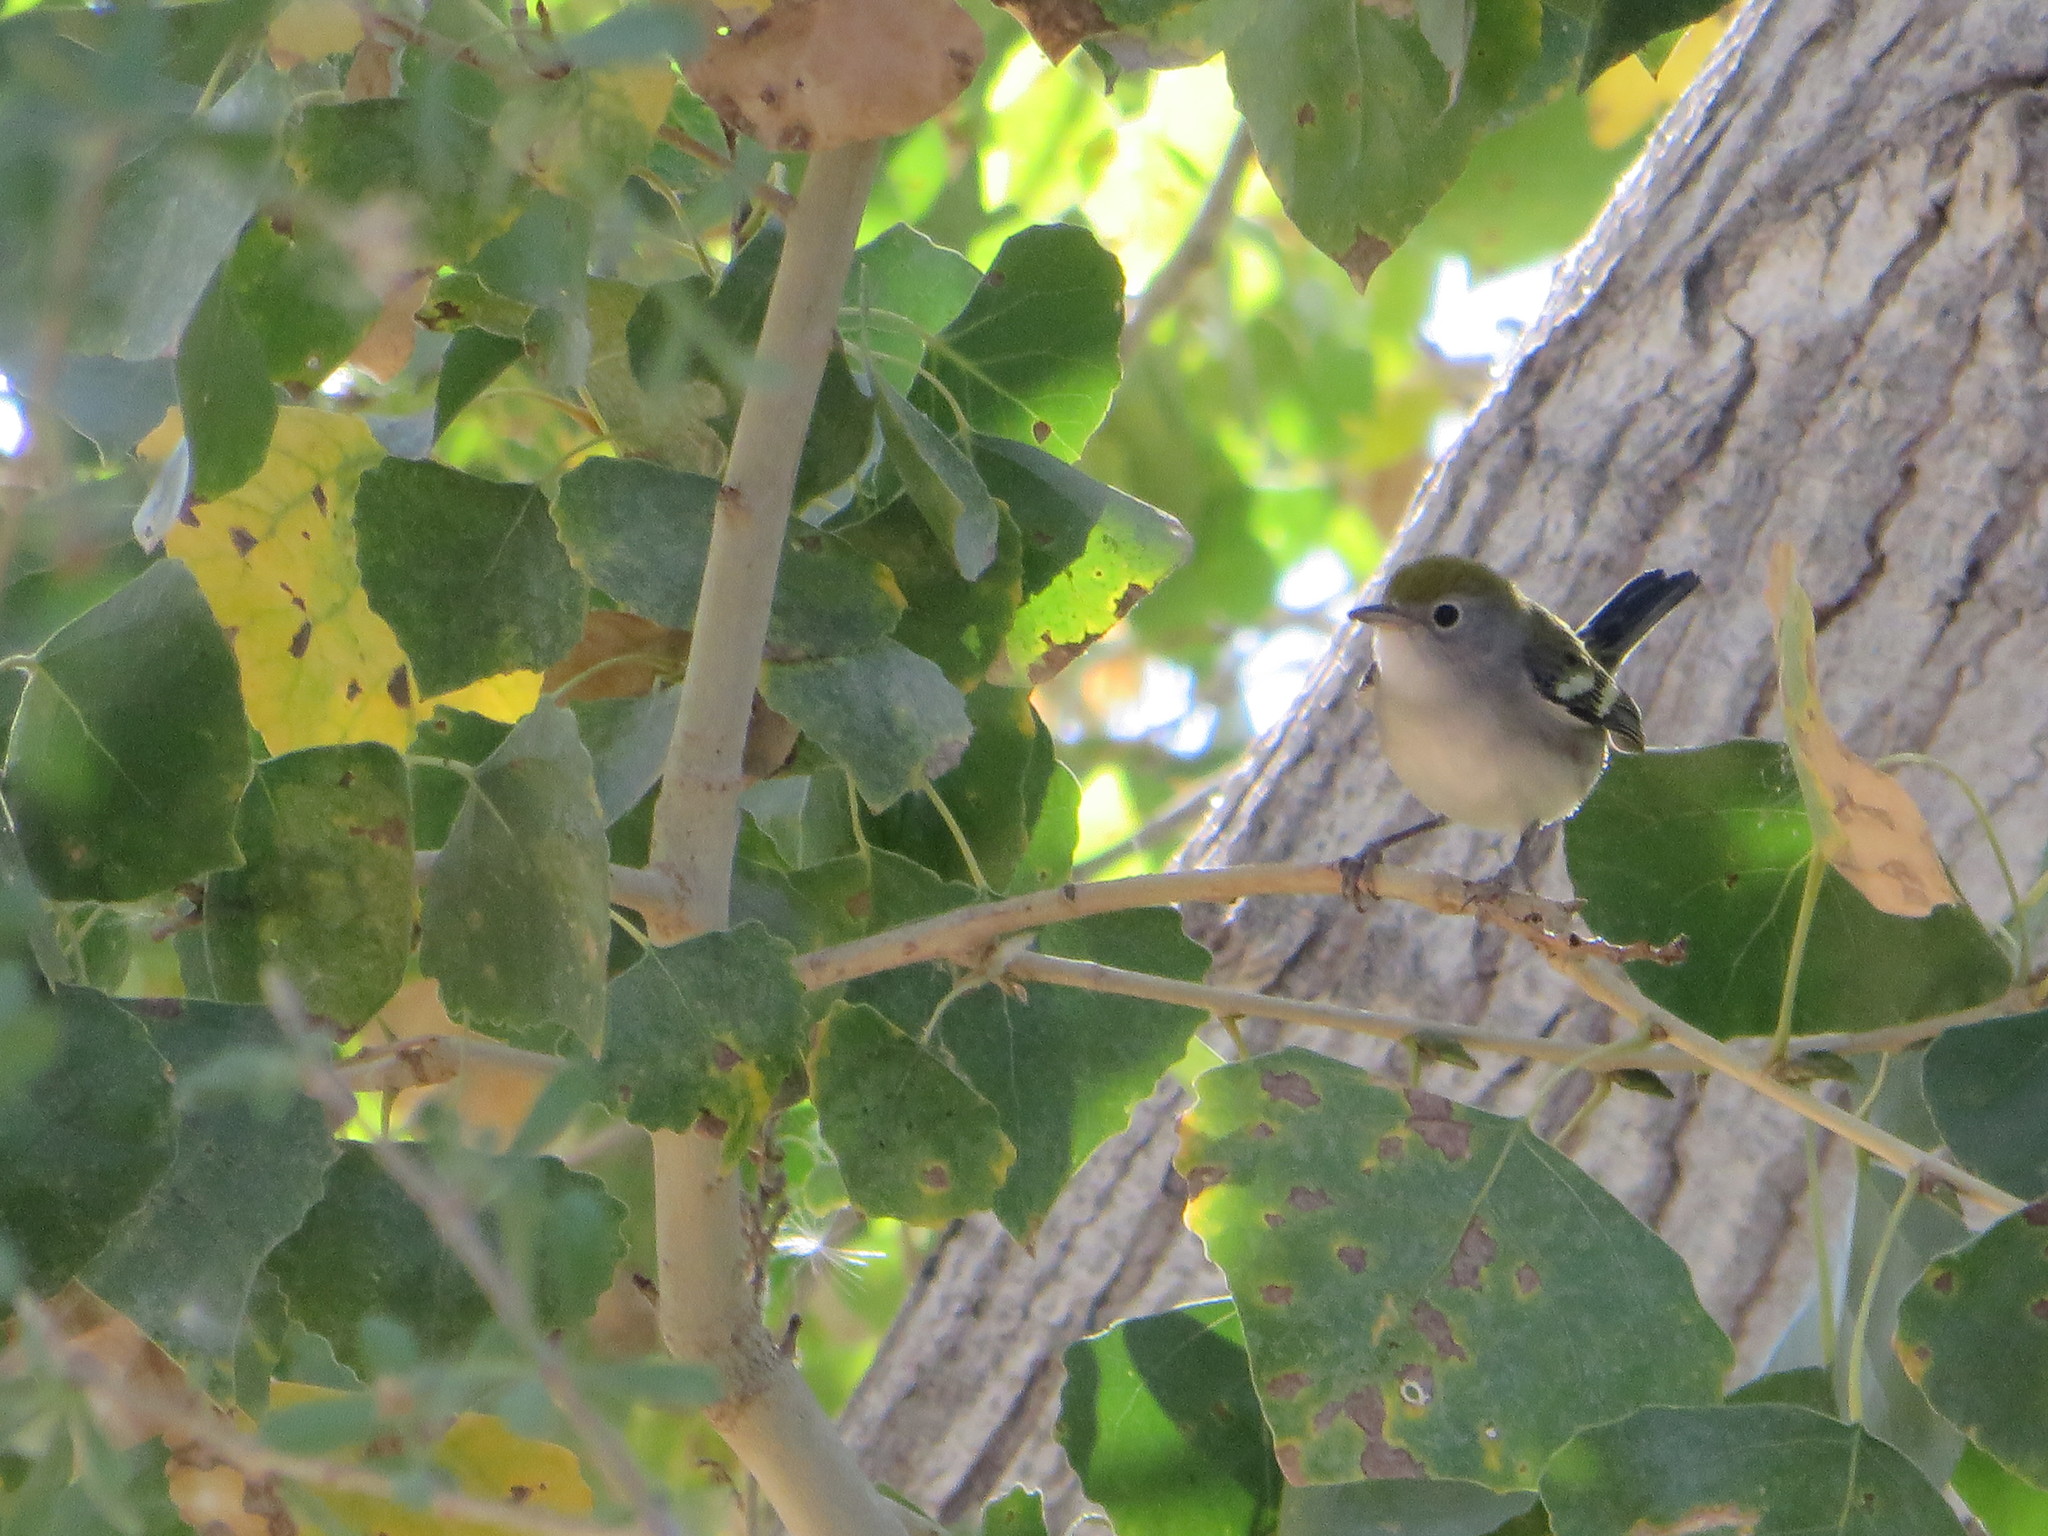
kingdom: Animalia
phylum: Chordata
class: Aves
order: Passeriformes
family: Parulidae
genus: Setophaga
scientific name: Setophaga pensylvanica
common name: Chestnut-sided warbler
